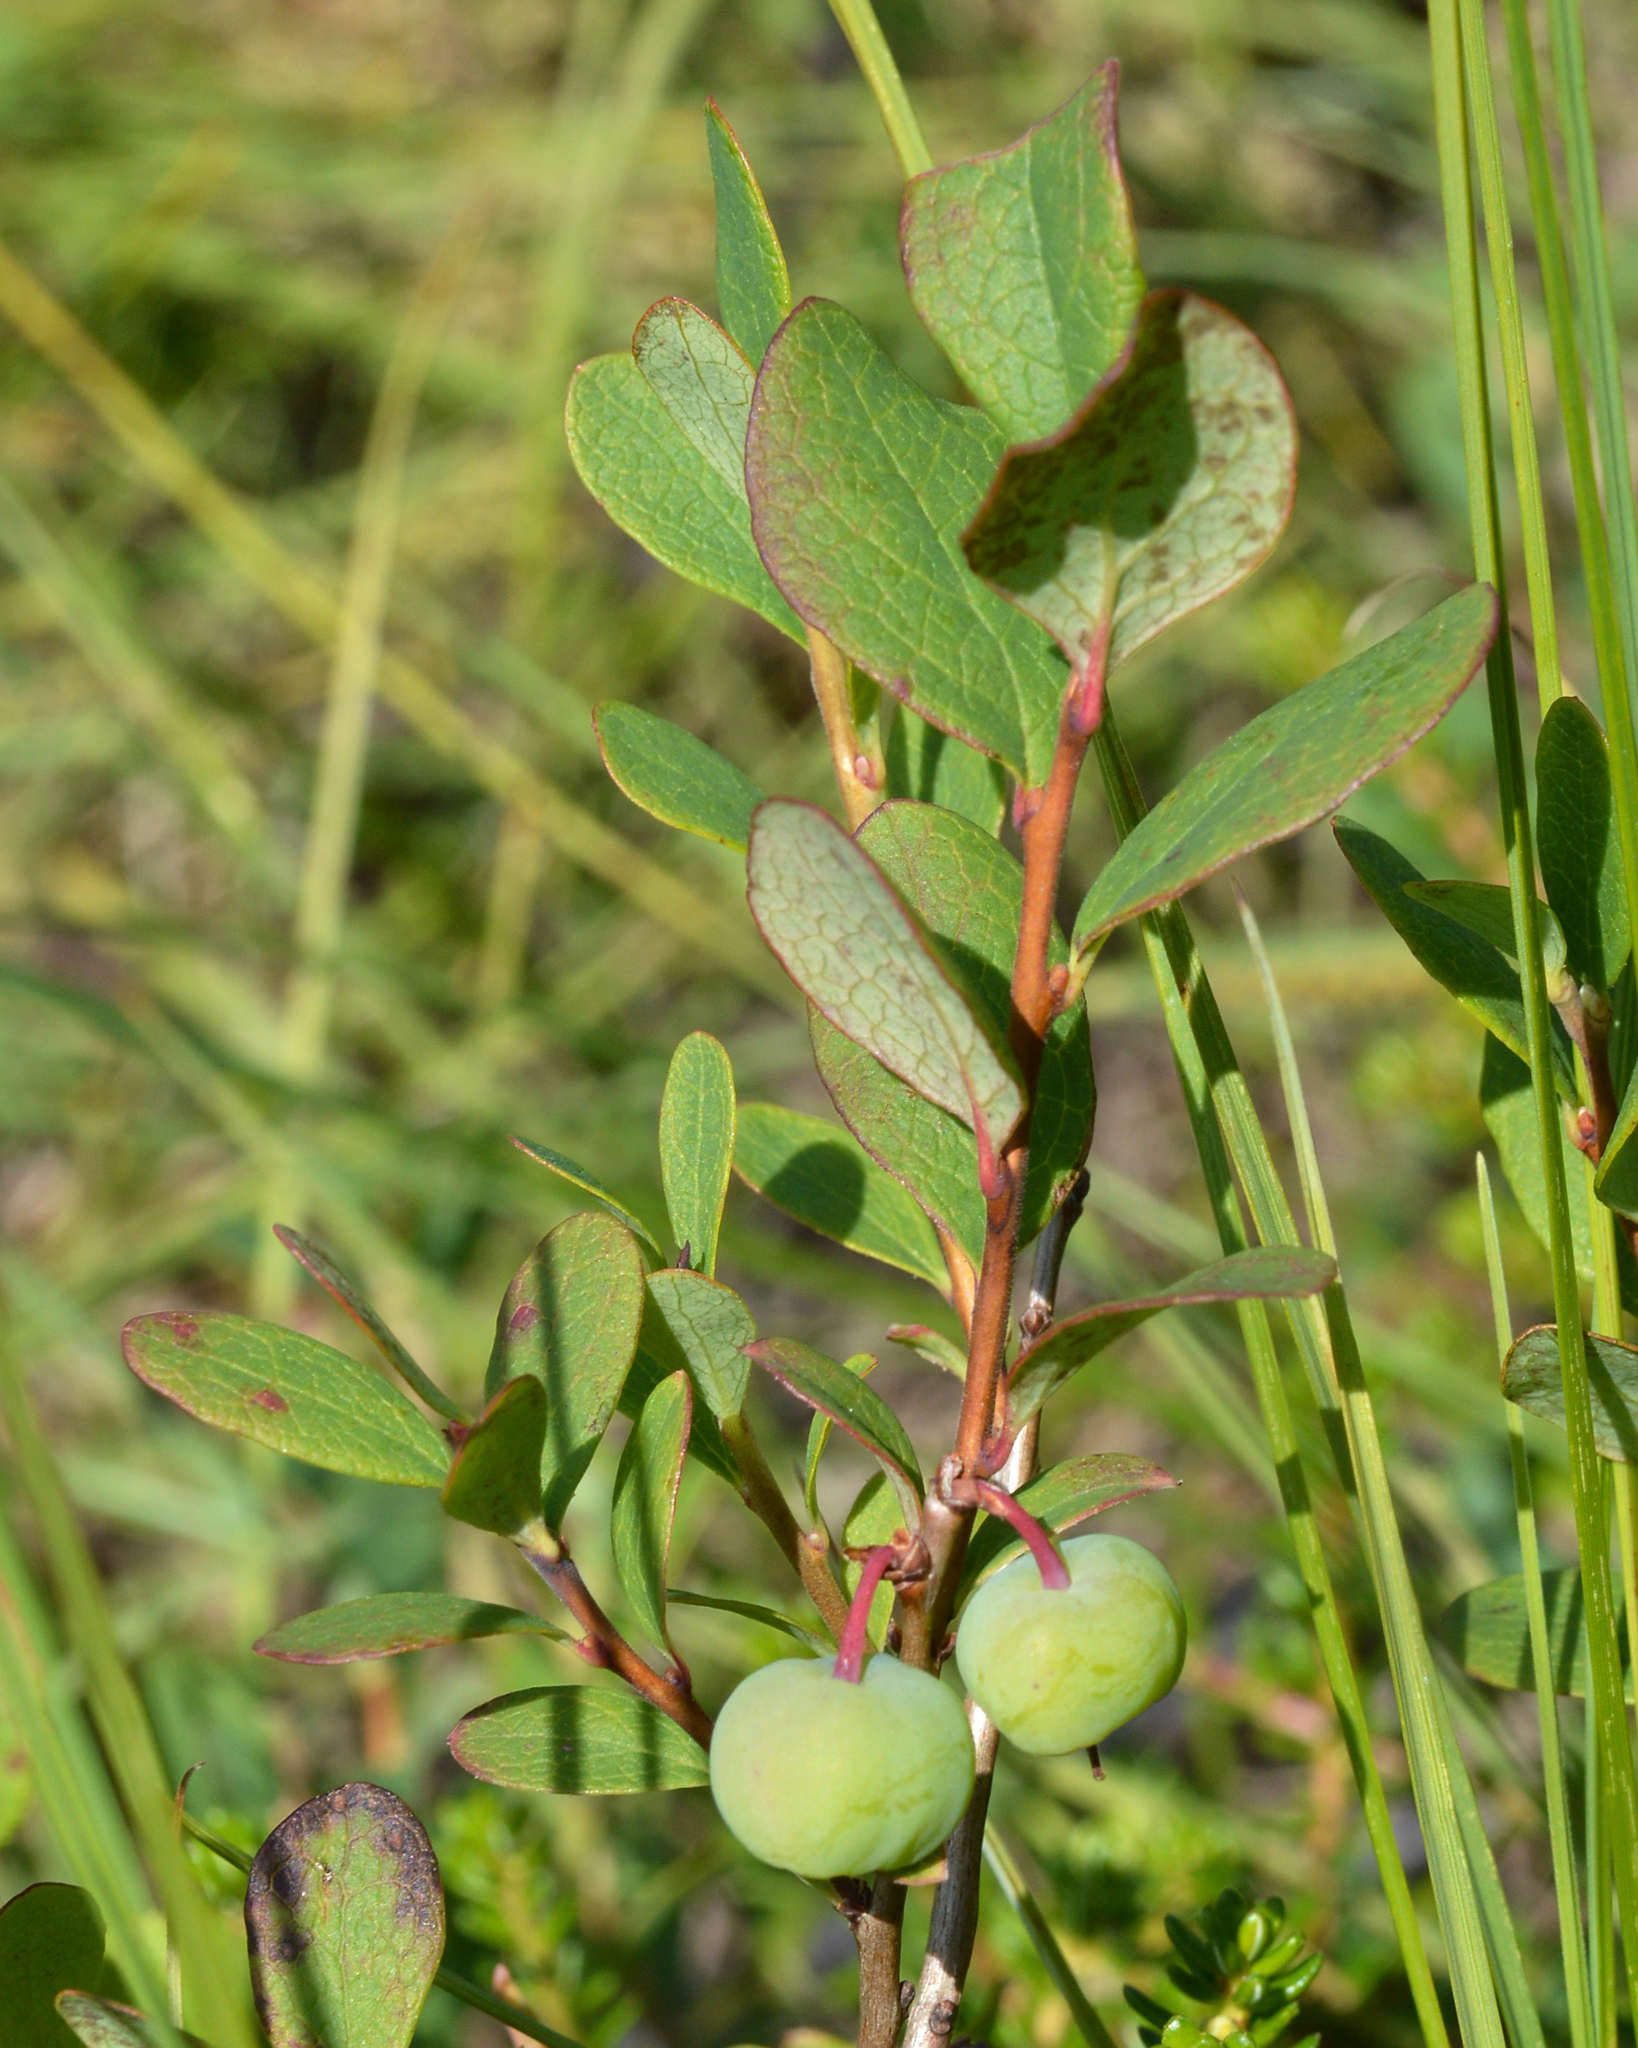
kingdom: Plantae
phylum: Tracheophyta
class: Magnoliopsida
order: Ericales
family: Ericaceae
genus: Vaccinium
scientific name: Vaccinium uliginosum
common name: Bog bilberry
